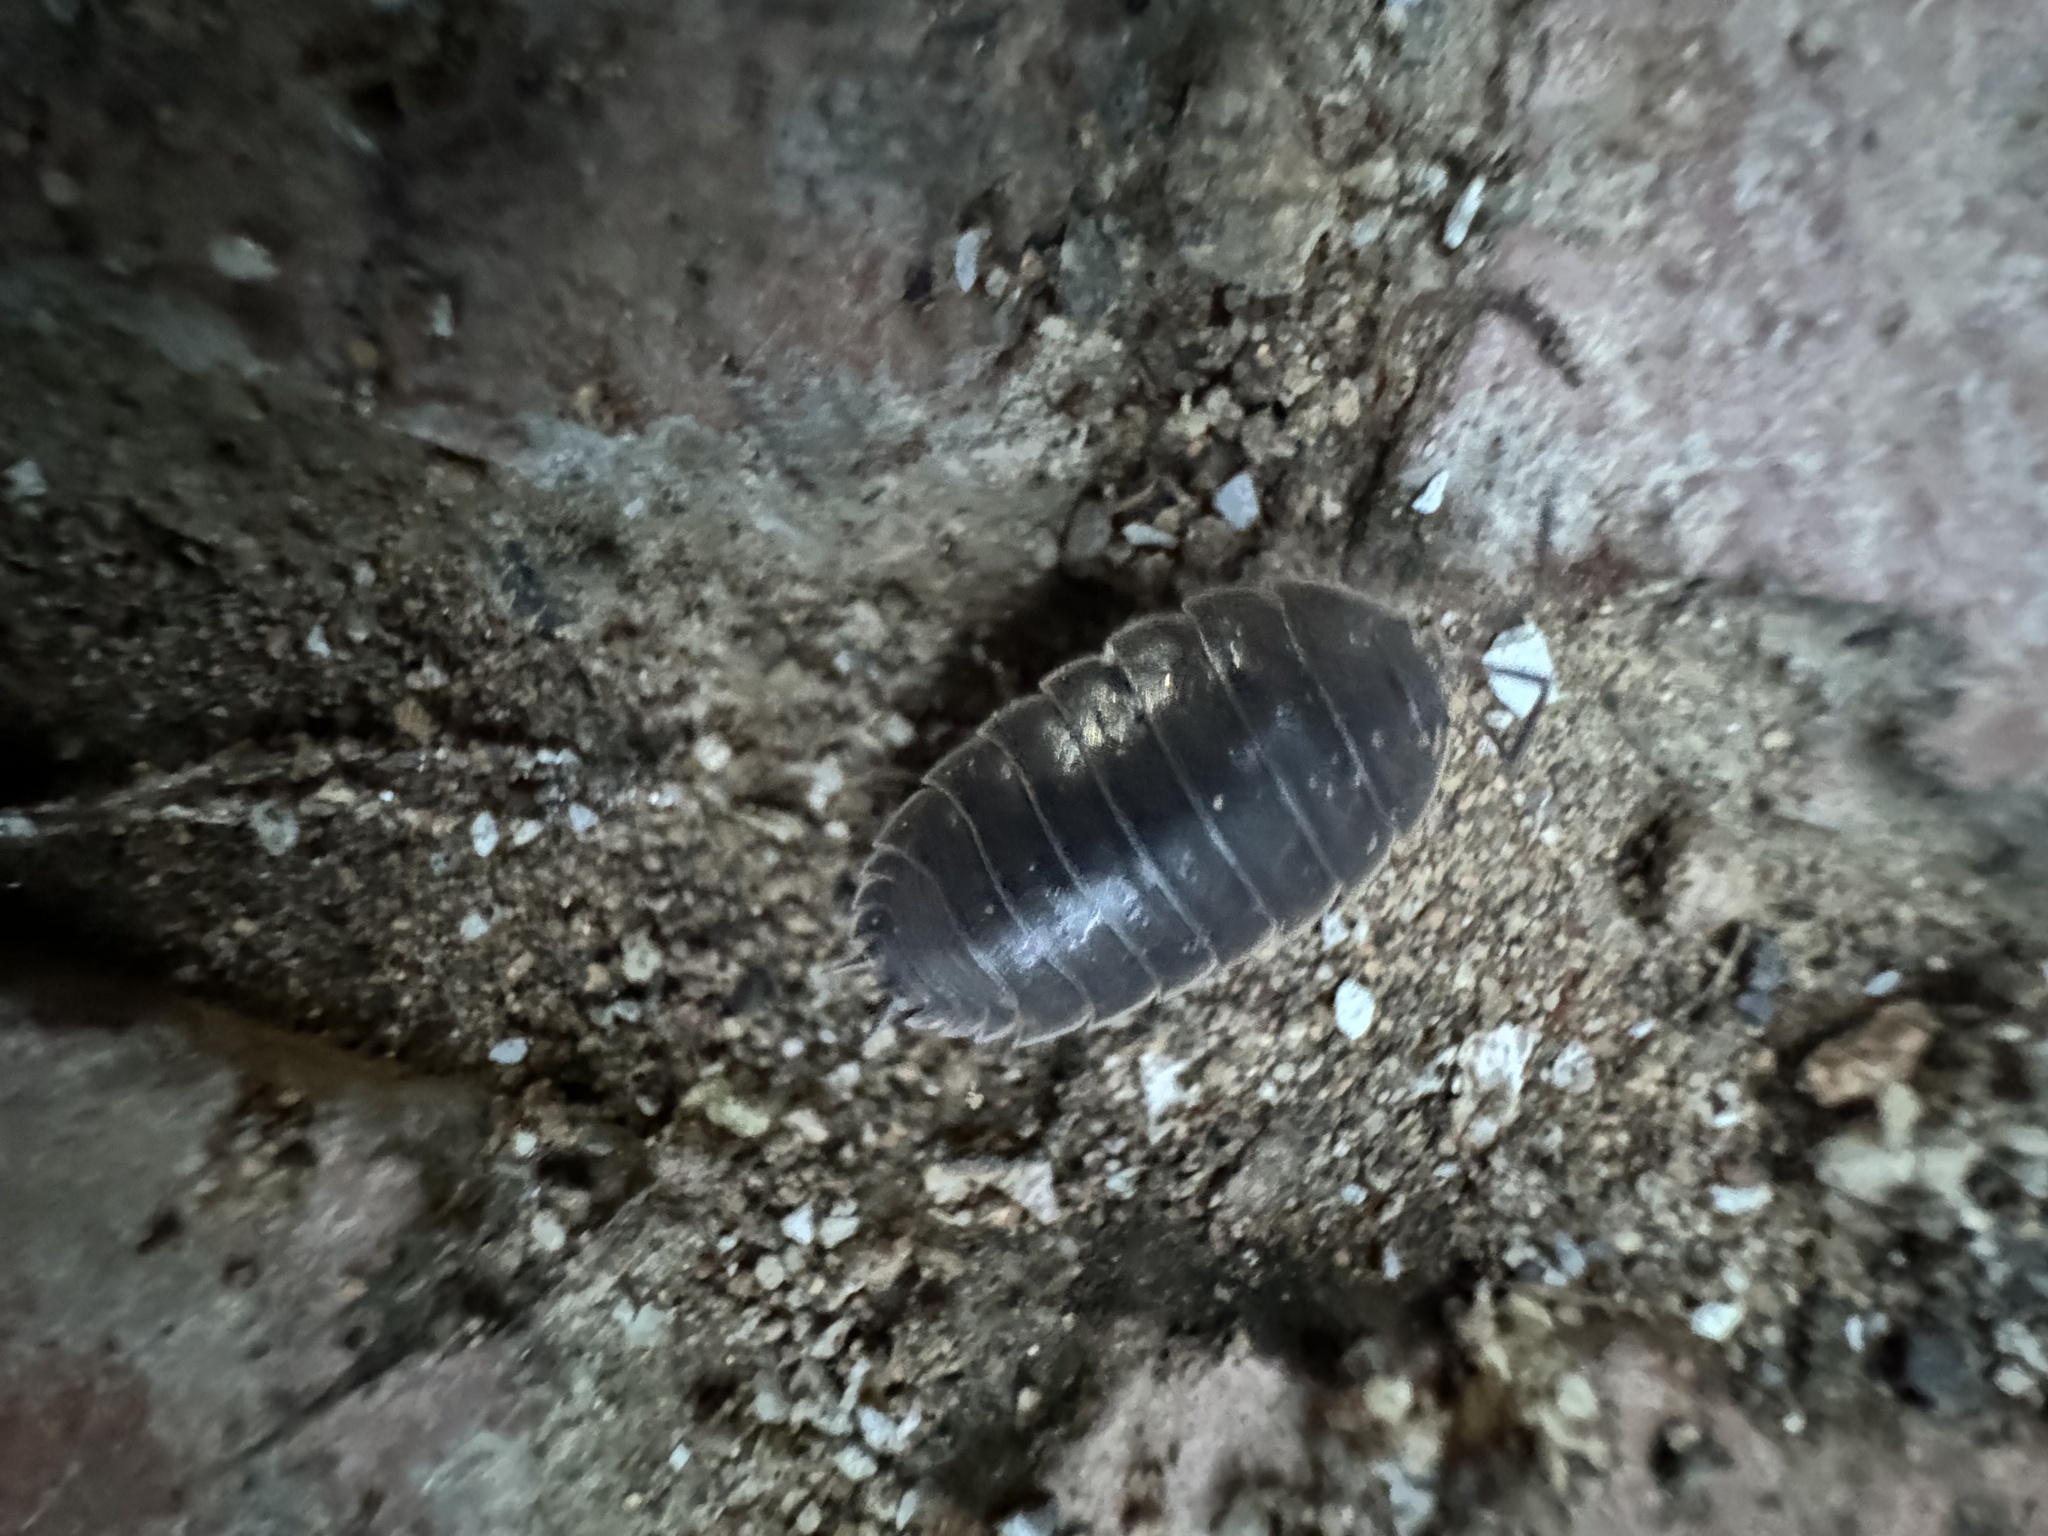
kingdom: Animalia
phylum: Arthropoda
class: Malacostraca
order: Isopoda
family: Porcellionidae
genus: Porcellio
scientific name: Porcellio laevis
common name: Swift woodlouse
